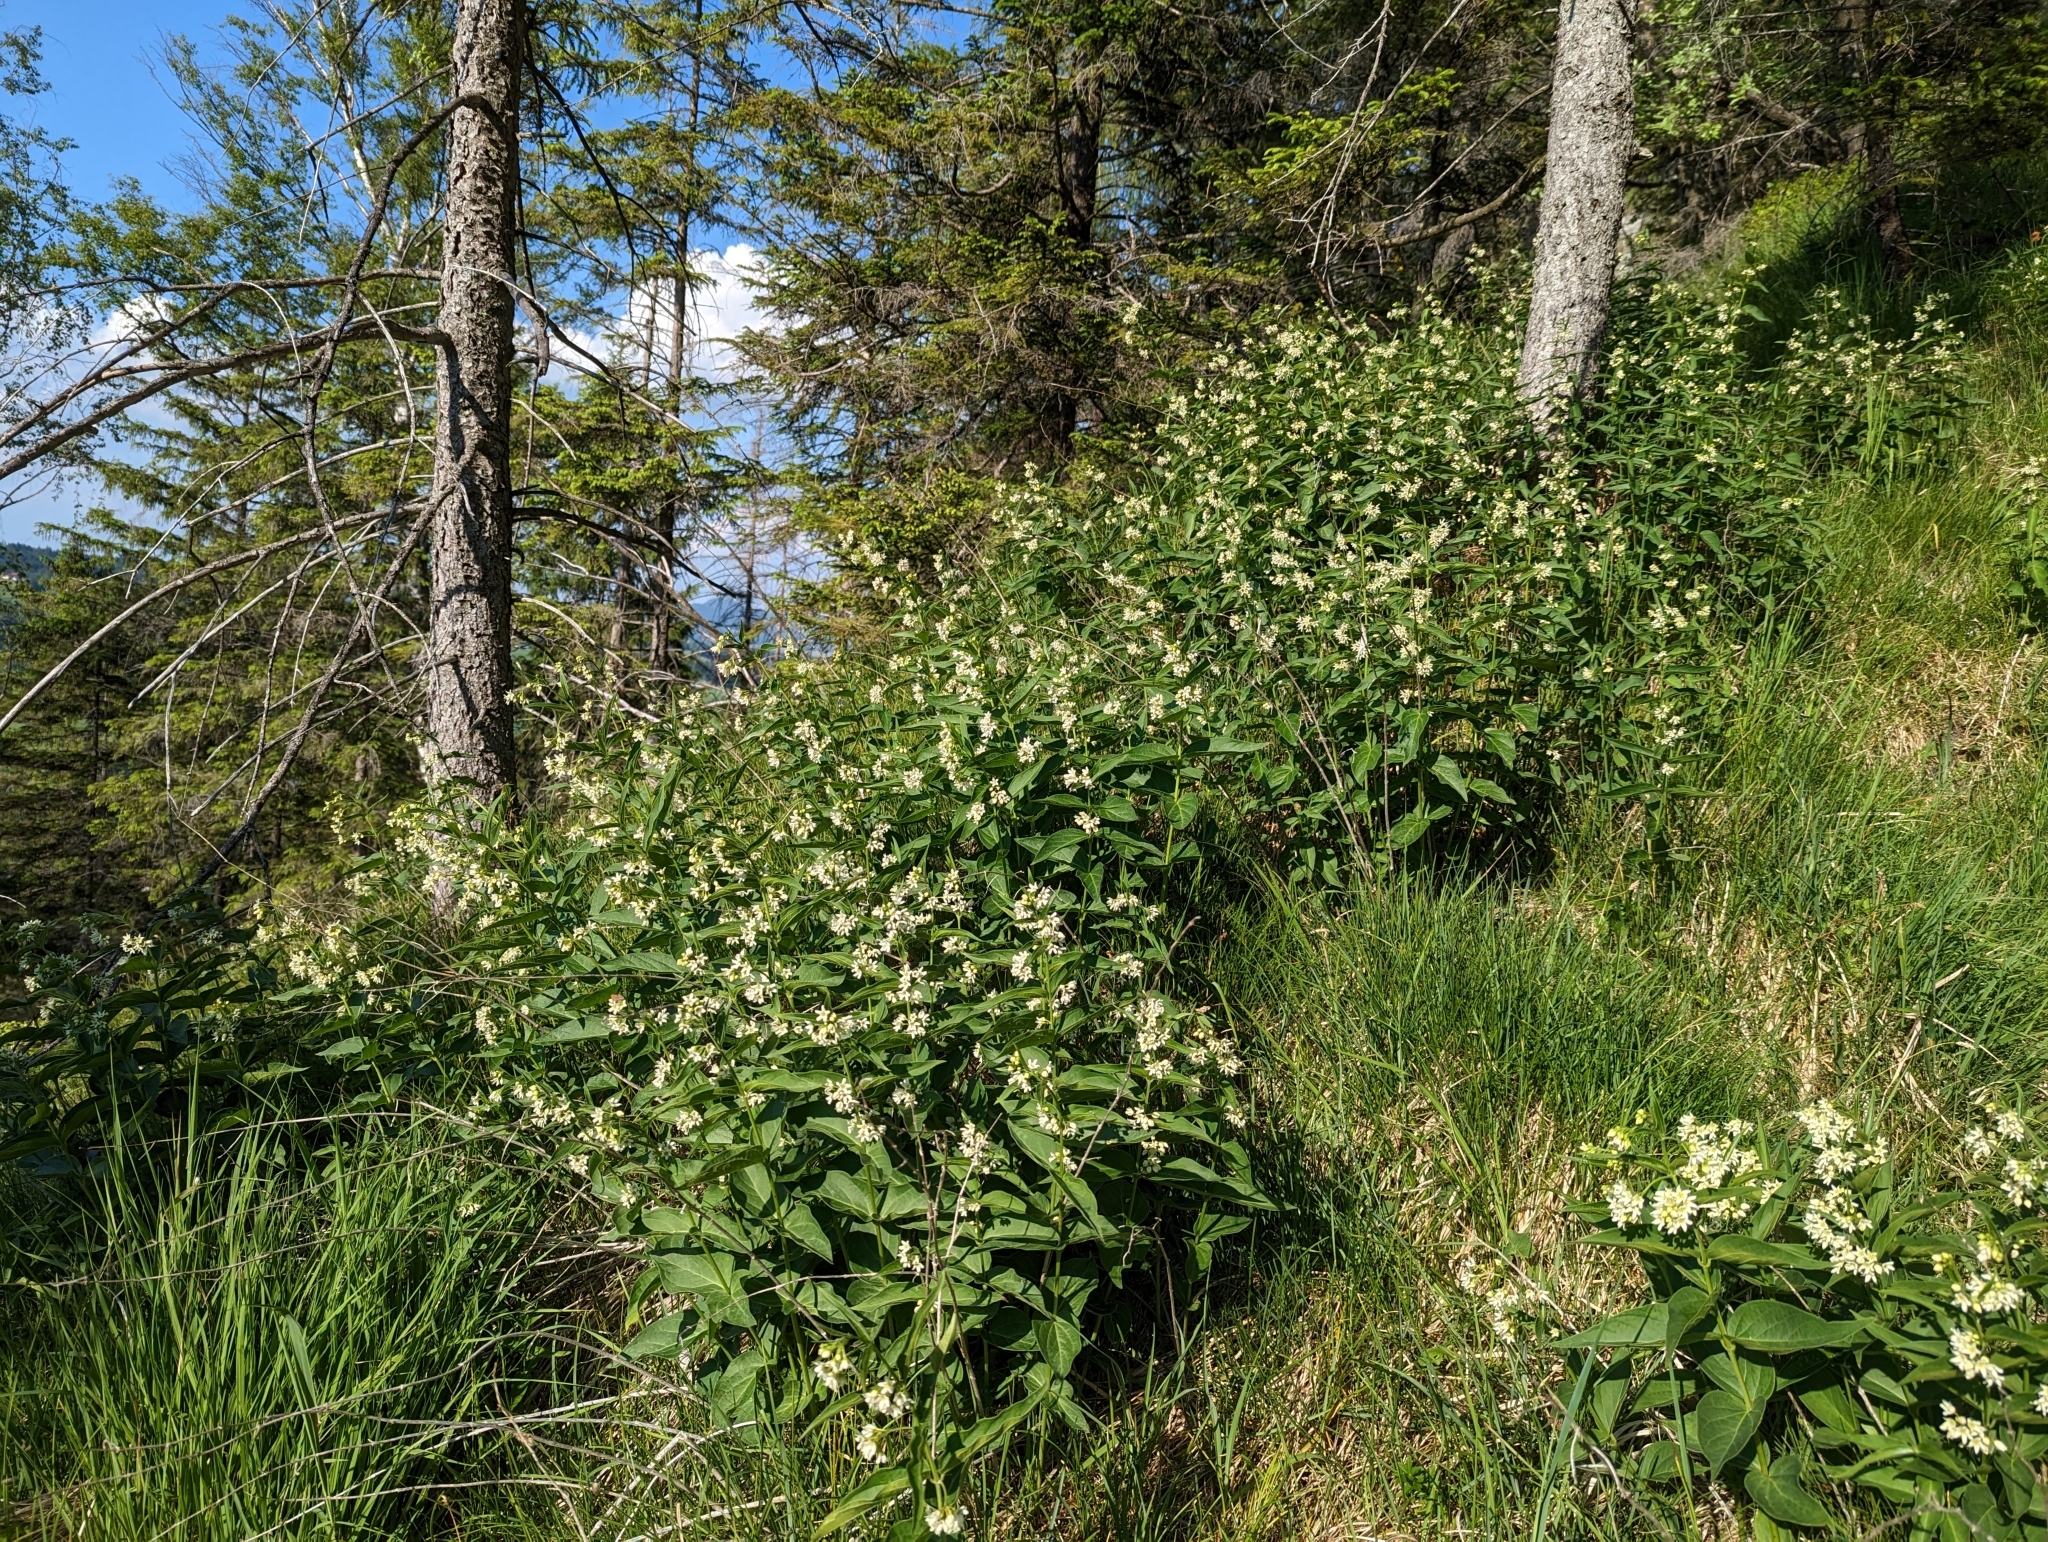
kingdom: Plantae
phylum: Tracheophyta
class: Magnoliopsida
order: Gentianales
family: Apocynaceae
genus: Vincetoxicum
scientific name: Vincetoxicum hirundinaria
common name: White swallowwort
